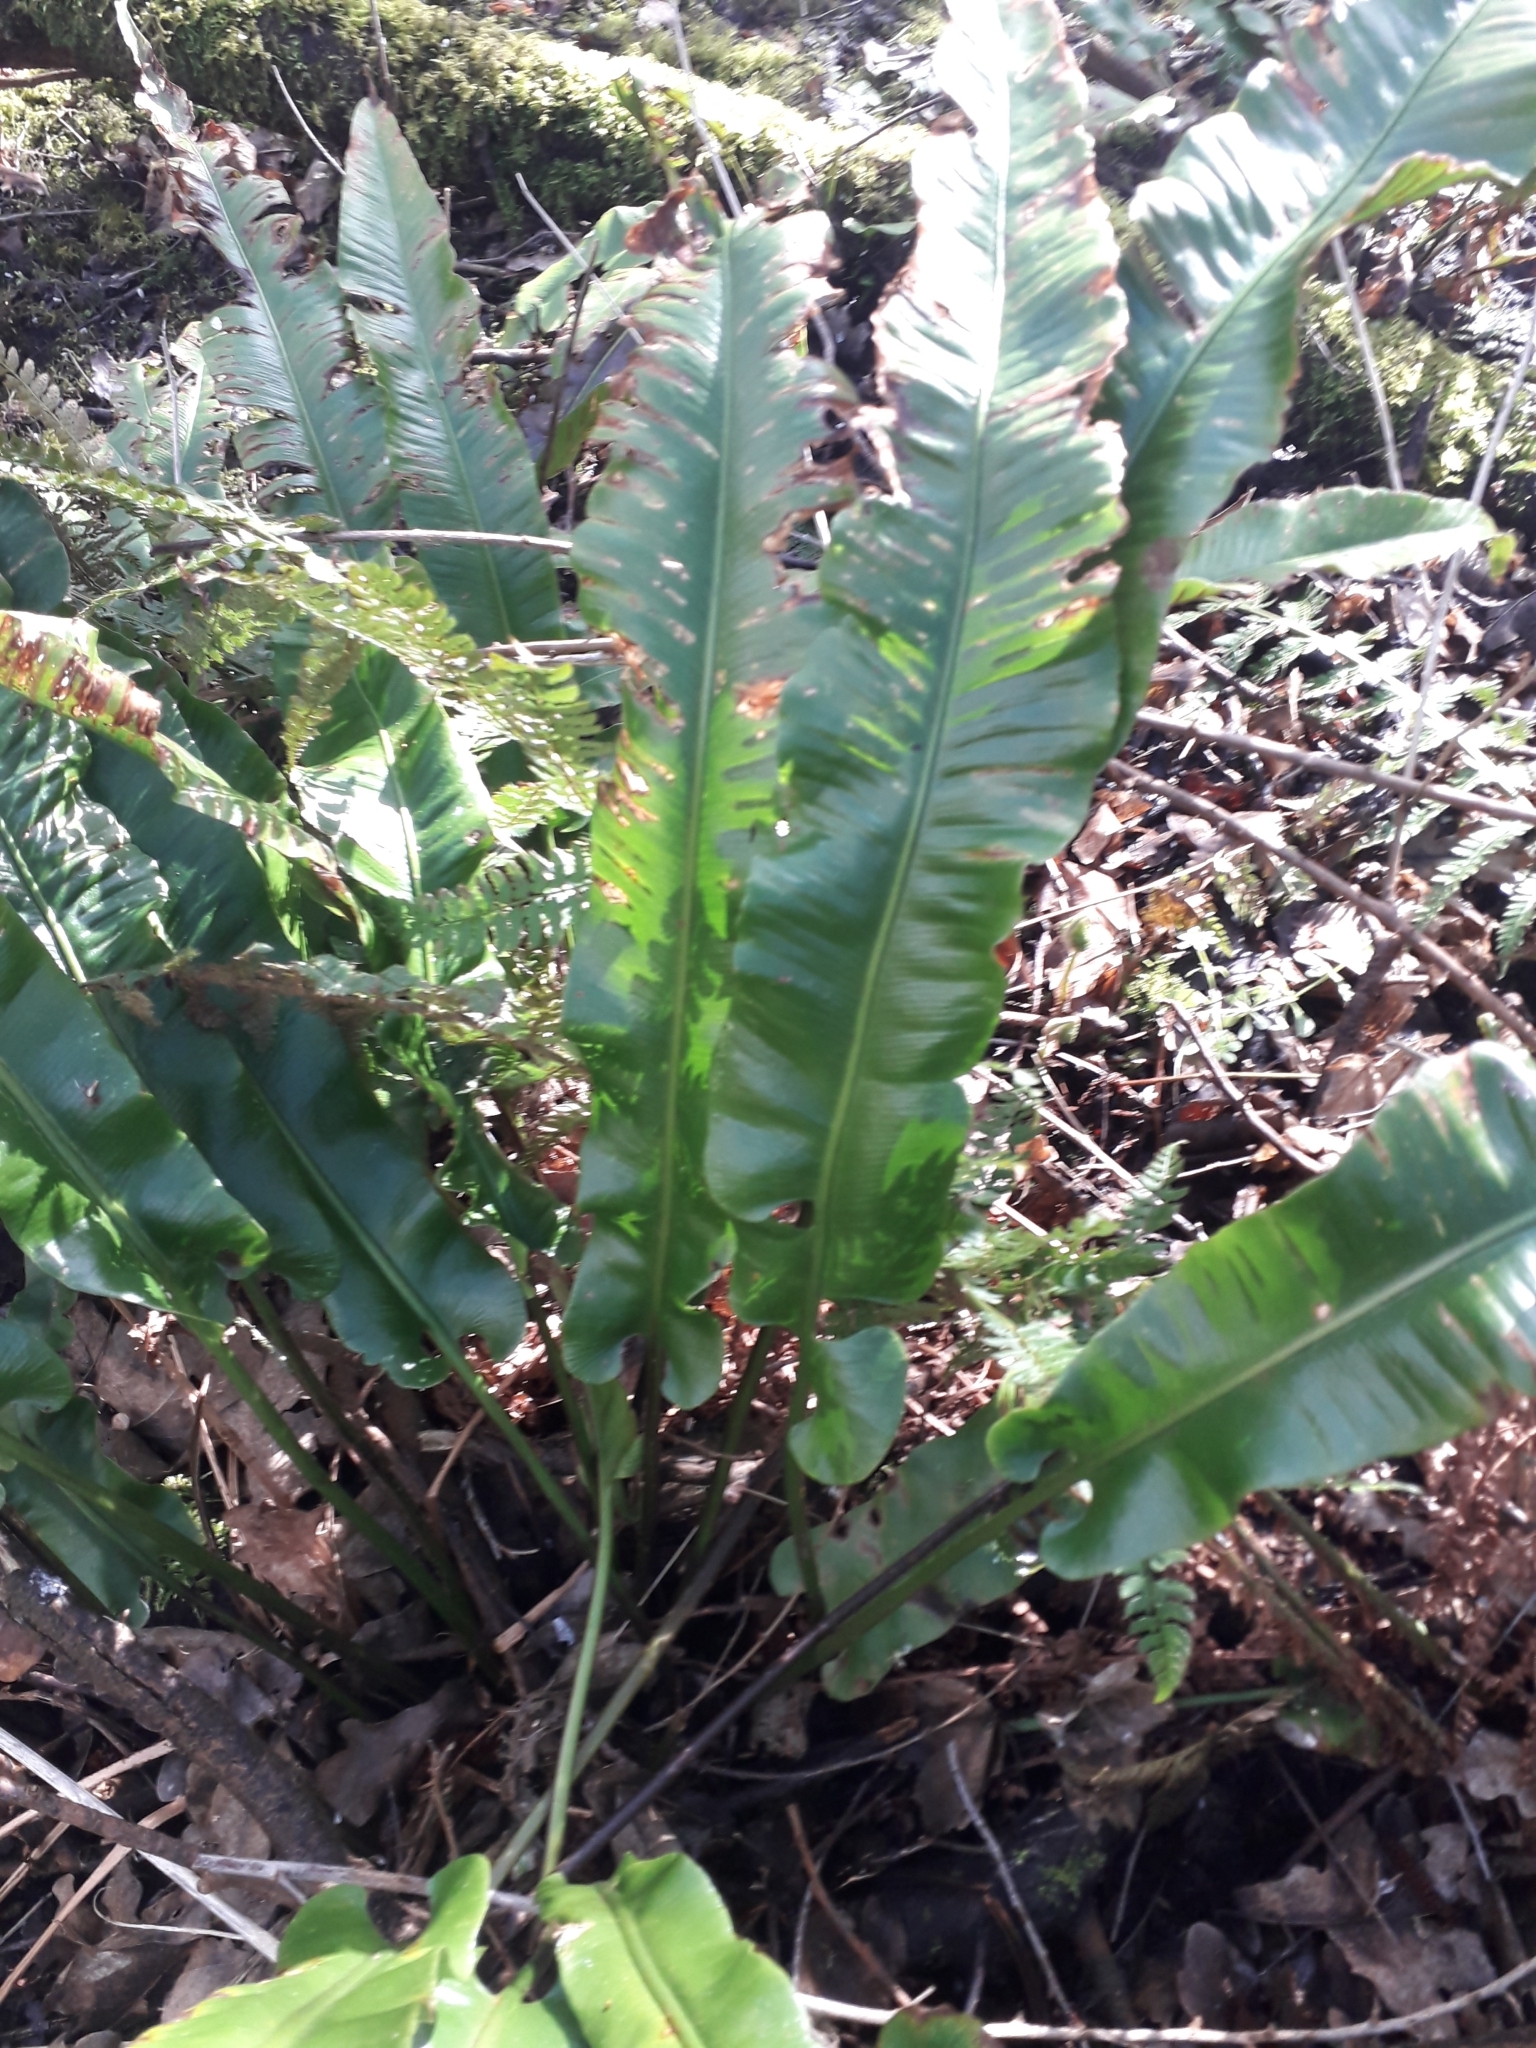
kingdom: Plantae
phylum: Tracheophyta
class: Polypodiopsida
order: Polypodiales
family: Aspleniaceae
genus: Asplenium
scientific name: Asplenium scolopendrium
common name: Hart's-tongue fern
